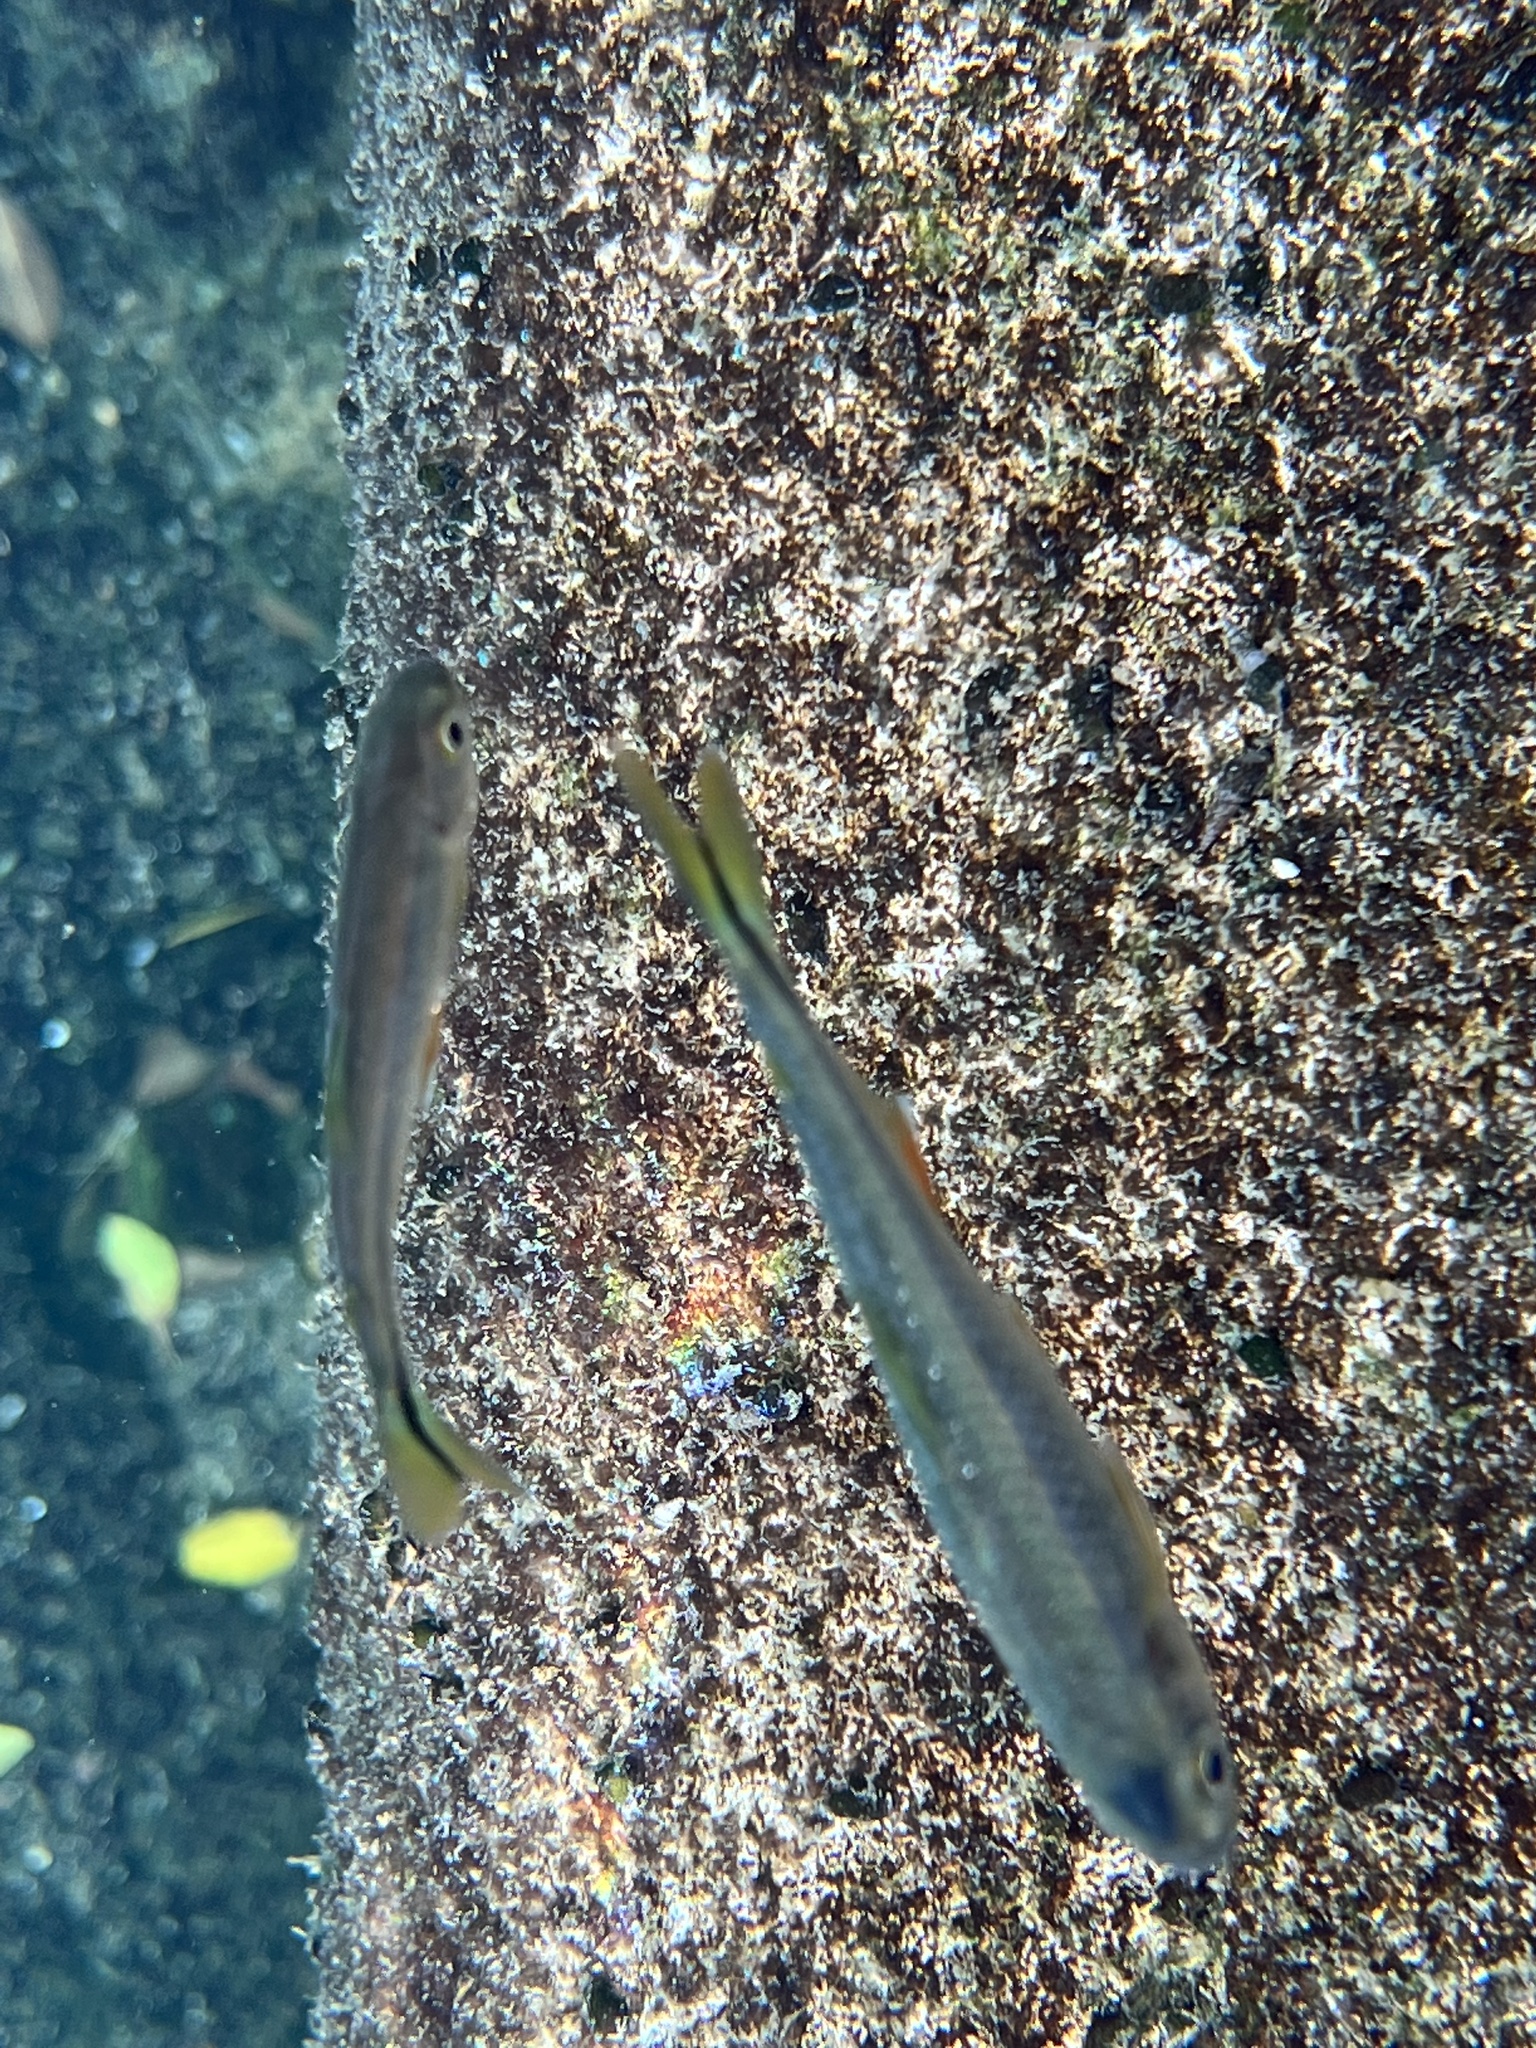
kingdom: Animalia
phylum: Chordata
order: Characiformes
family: Characidae
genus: Astyanax
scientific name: Astyanax mexicanus
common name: Mexican tetra
